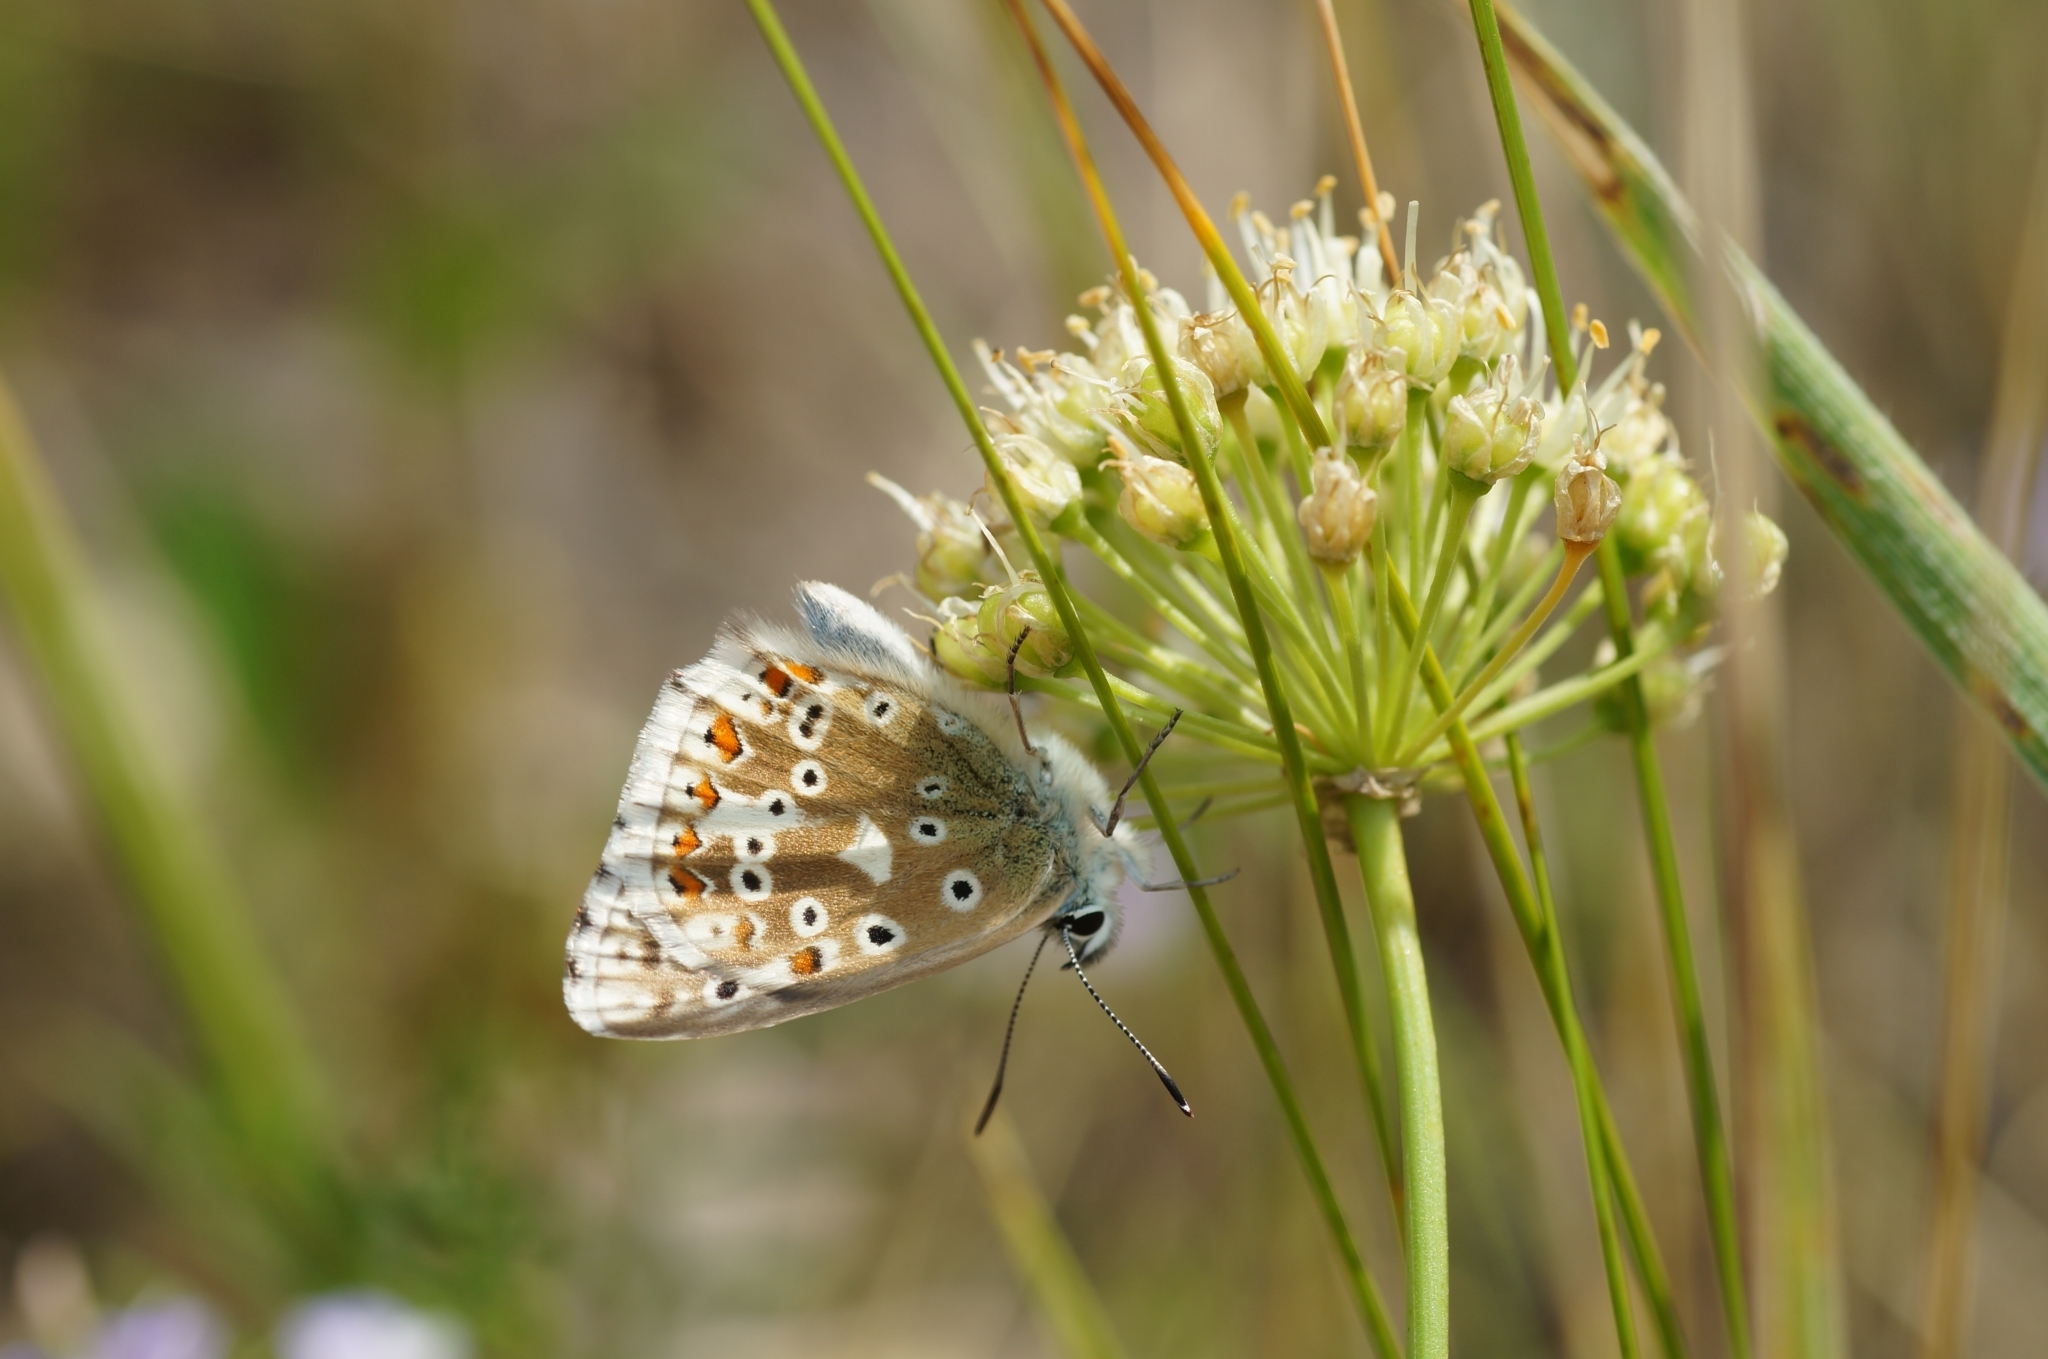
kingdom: Animalia
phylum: Arthropoda
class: Insecta
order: Lepidoptera
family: Lycaenidae
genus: Lysandra
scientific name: Lysandra coridon
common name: Chalkhill blue
